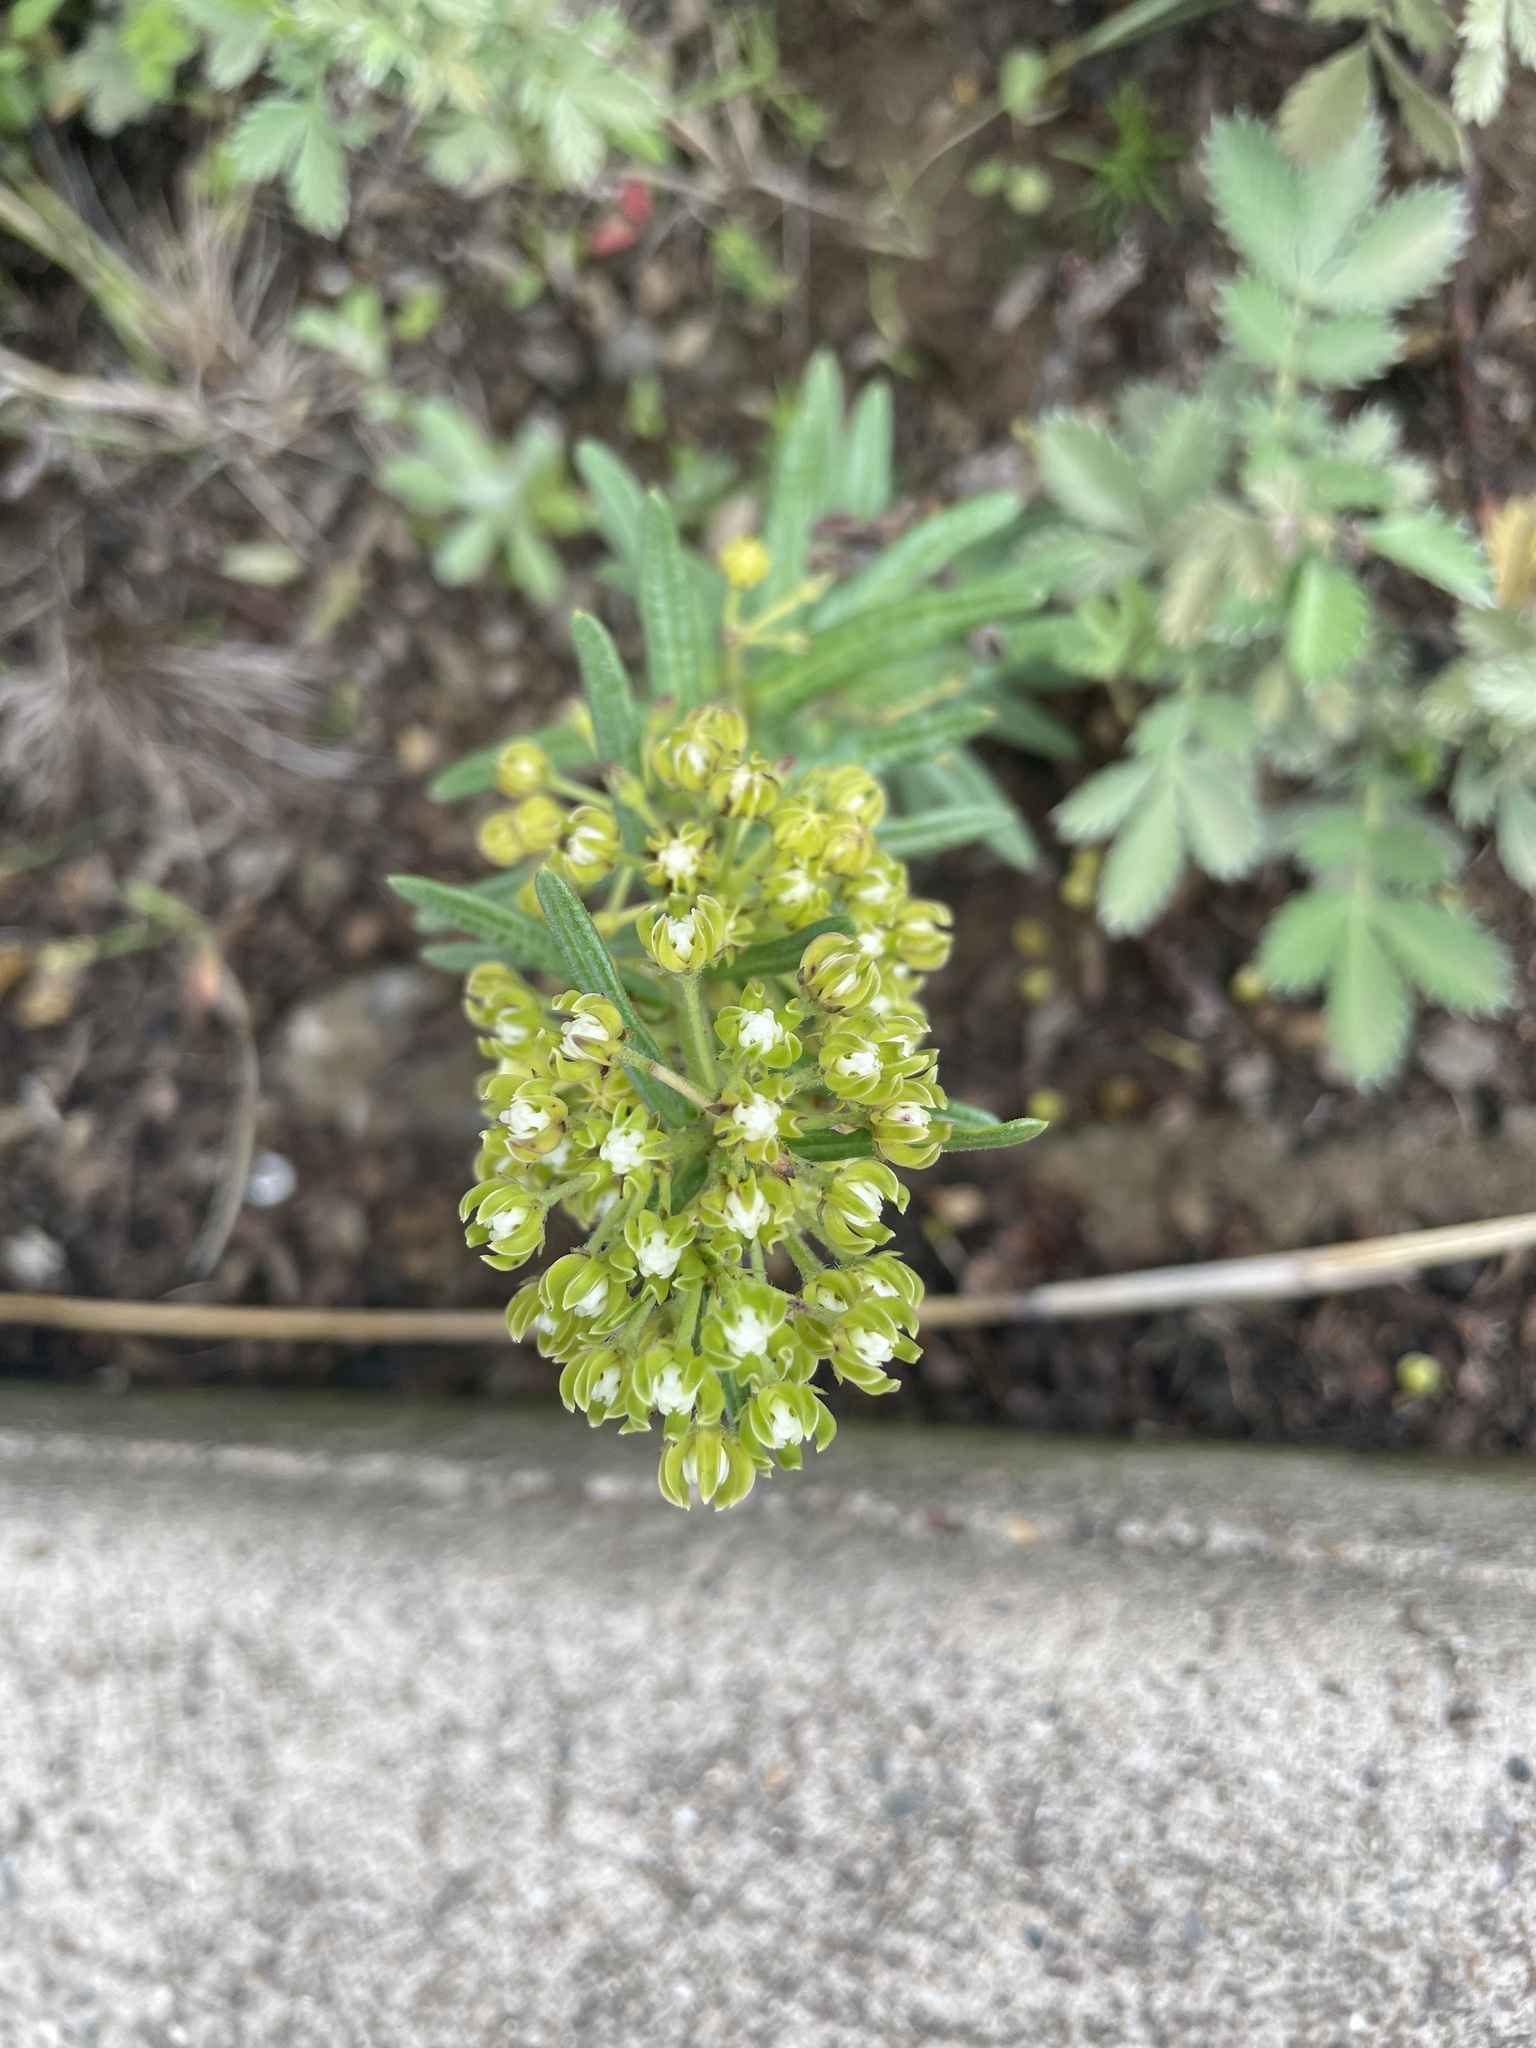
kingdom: Plantae
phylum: Tracheophyta
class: Magnoliopsida
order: Gentianales
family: Apocynaceae
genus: Schizoglossum
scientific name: Schizoglossum bidens
